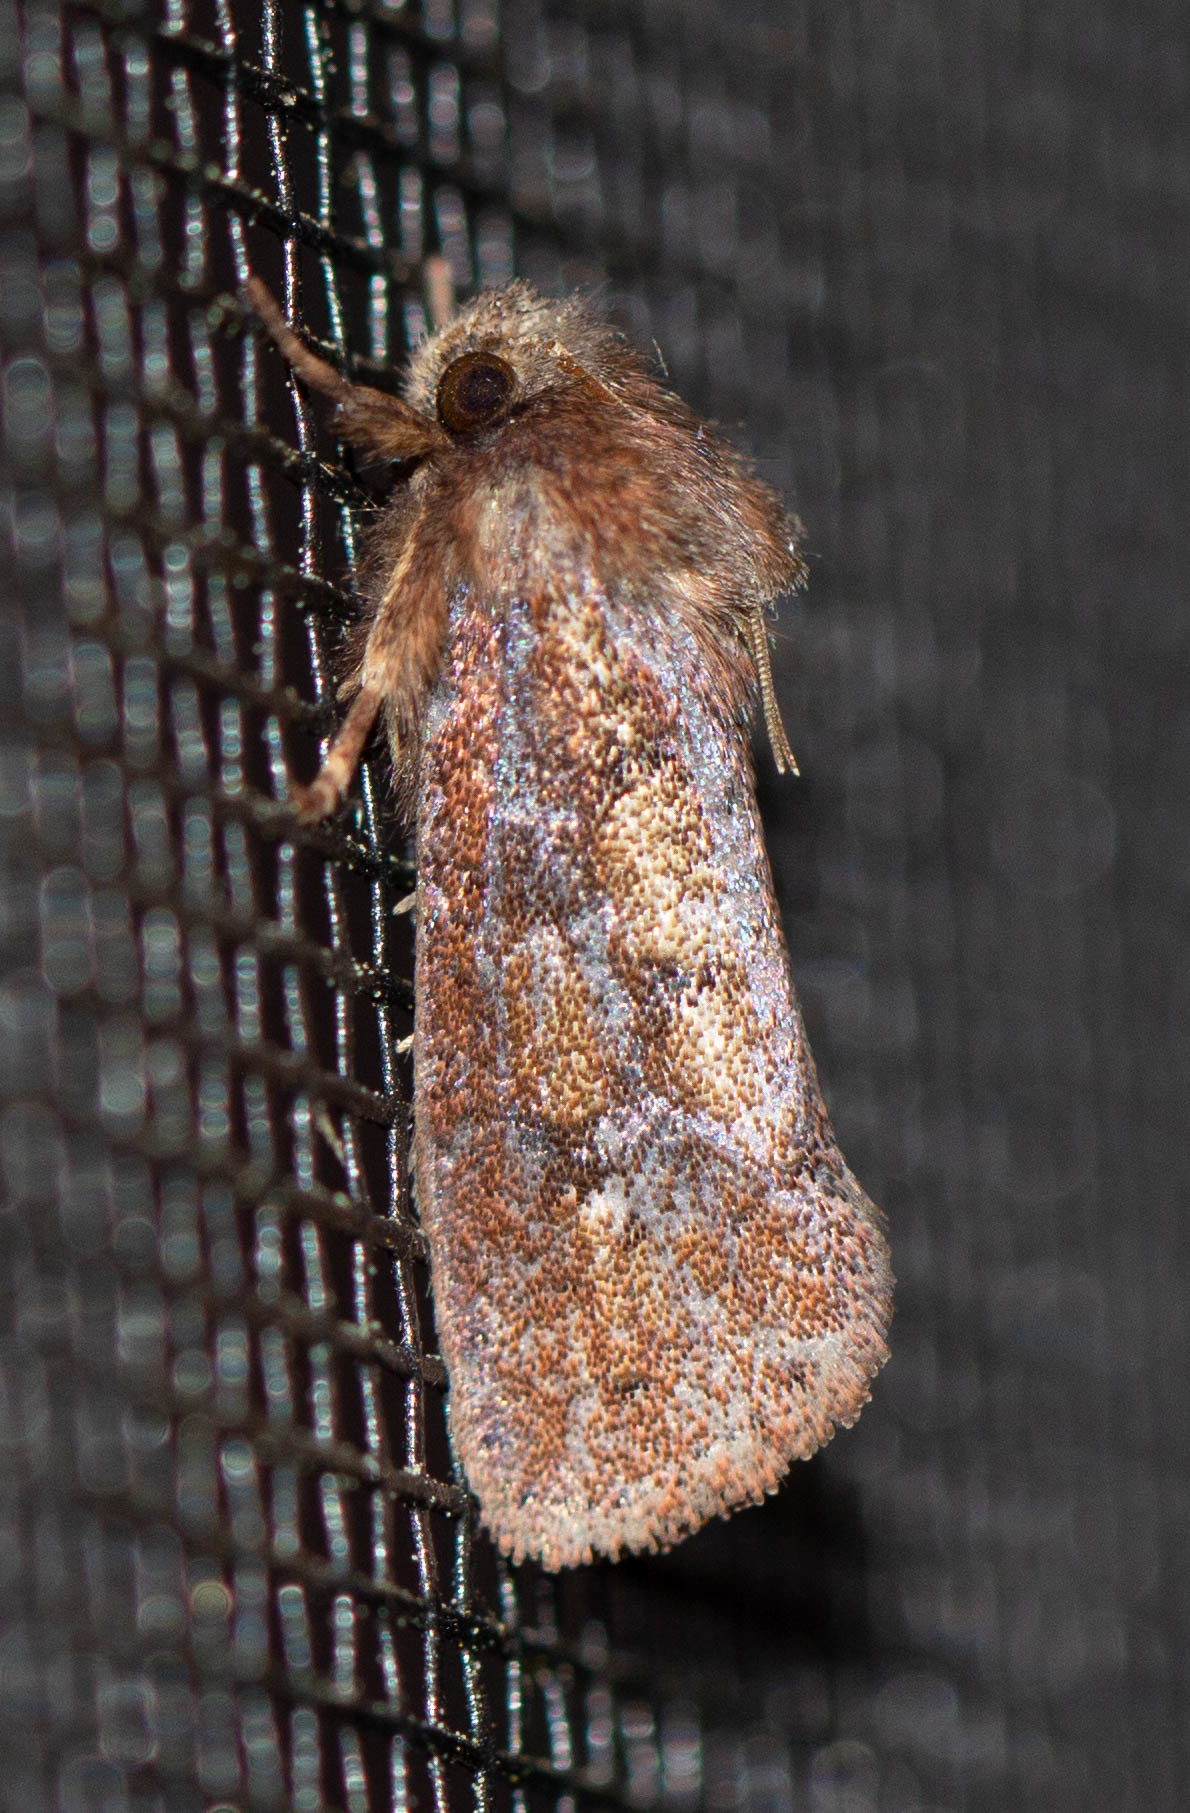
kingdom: Animalia
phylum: Arthropoda
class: Insecta
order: Lepidoptera
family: Tineidae
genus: Acrolophus
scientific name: Acrolophus plumifrontella
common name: Eastern grass tubeworm moth
